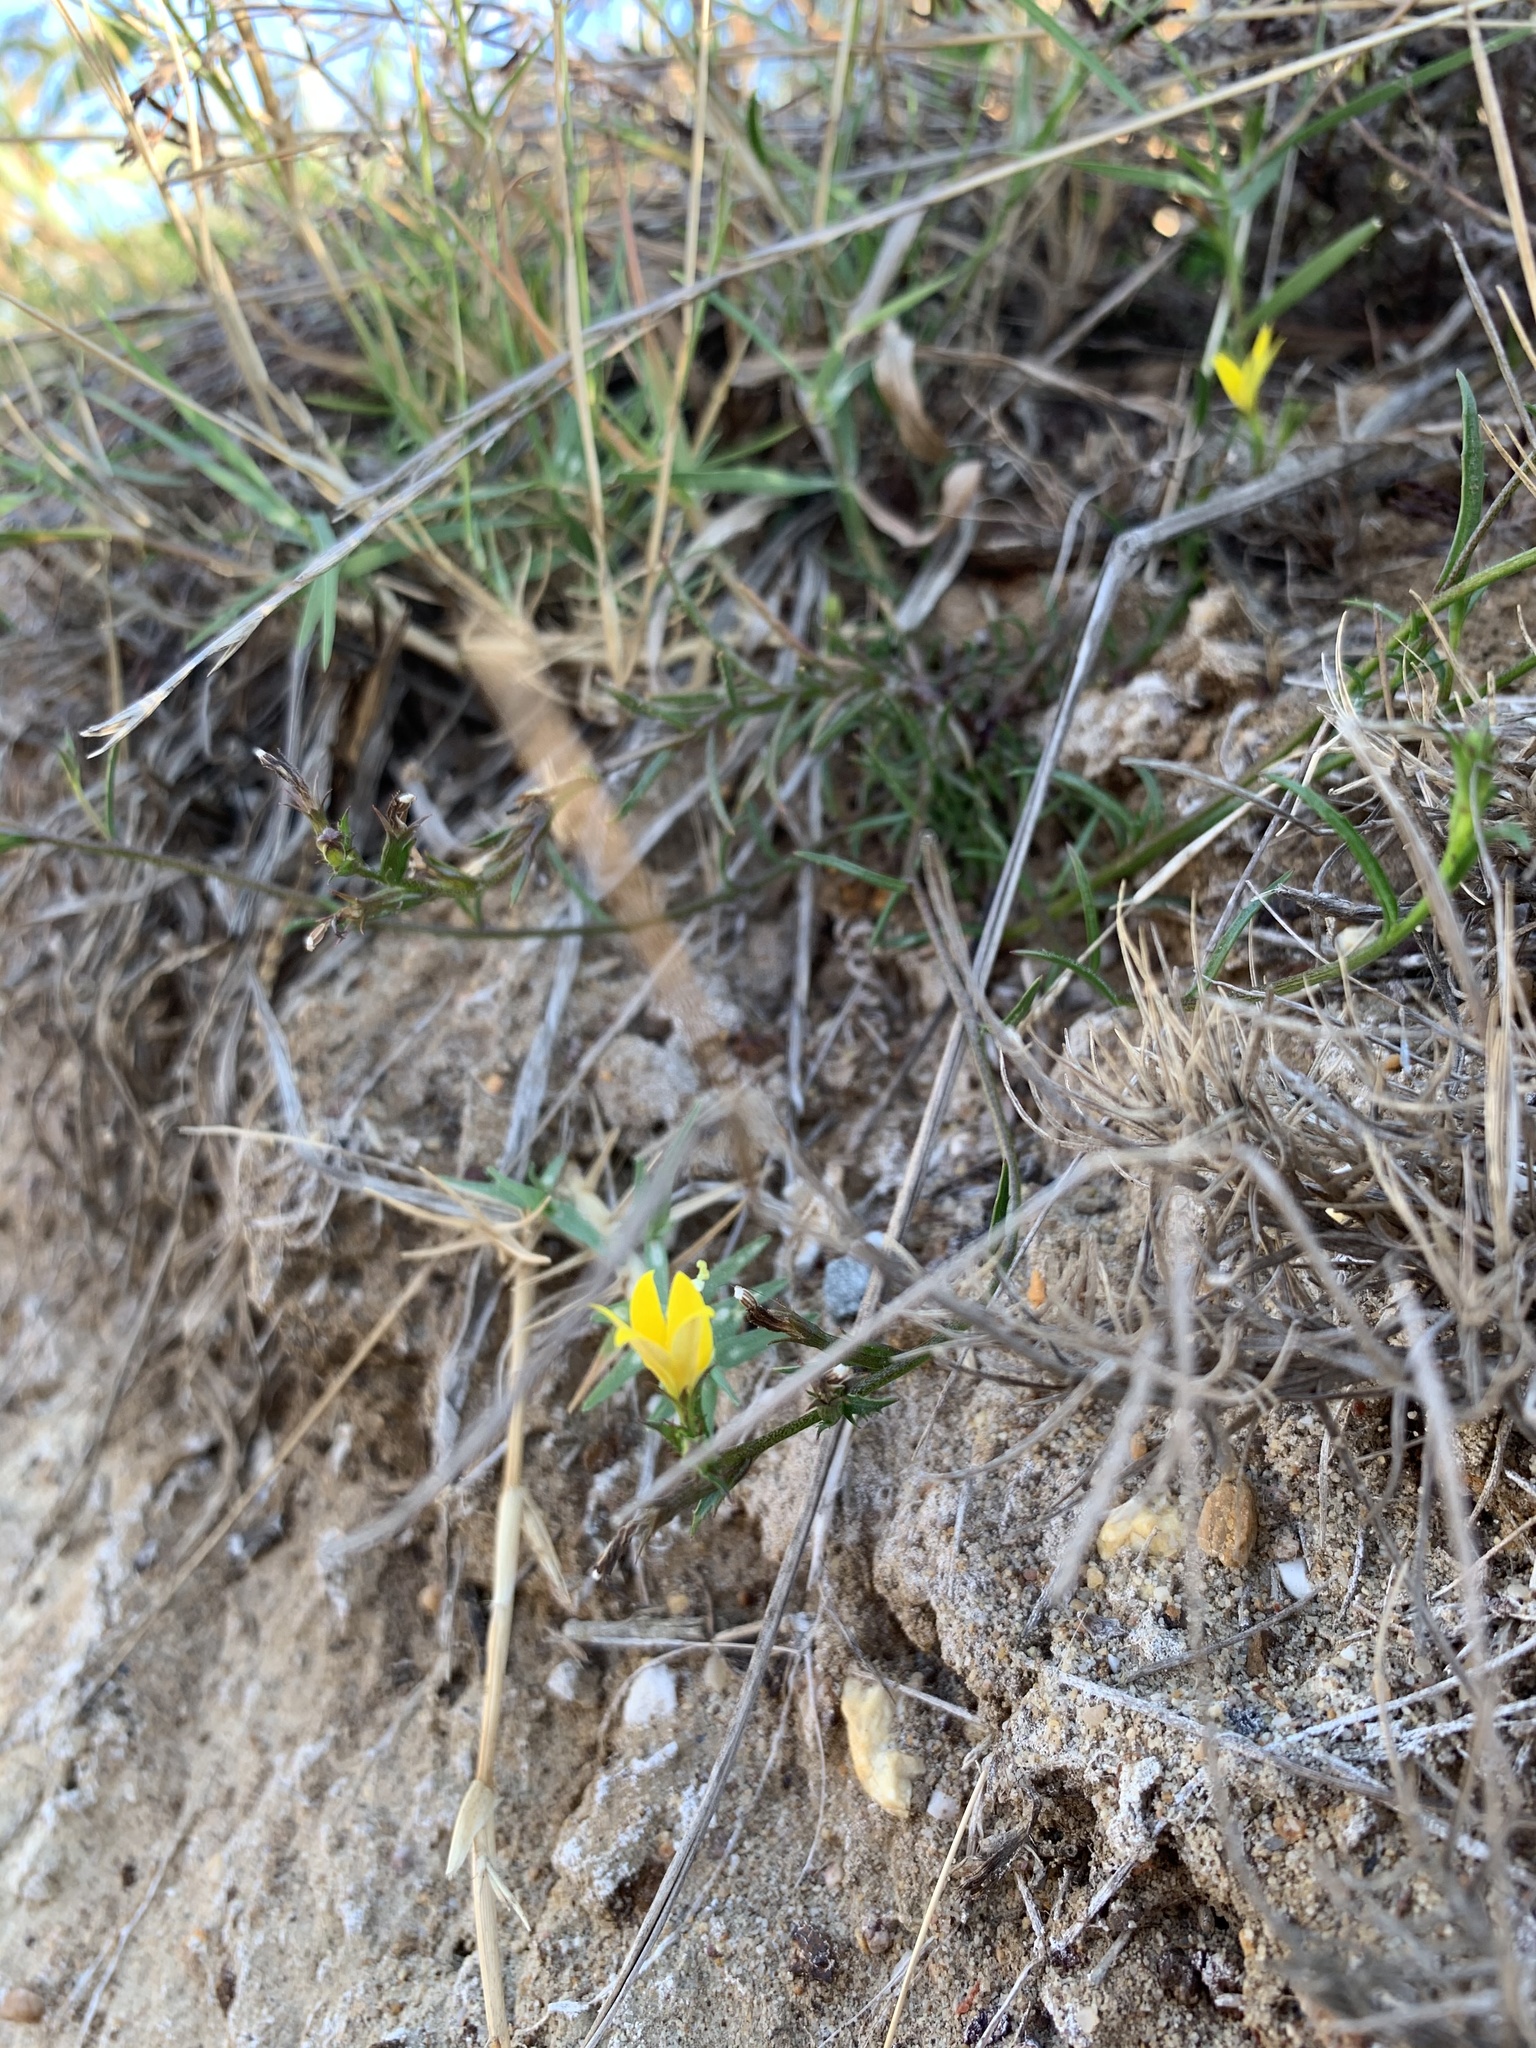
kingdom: Plantae
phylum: Tracheophyta
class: Magnoliopsida
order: Asterales
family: Campanulaceae
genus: Monopsis
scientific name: Monopsis lutea
